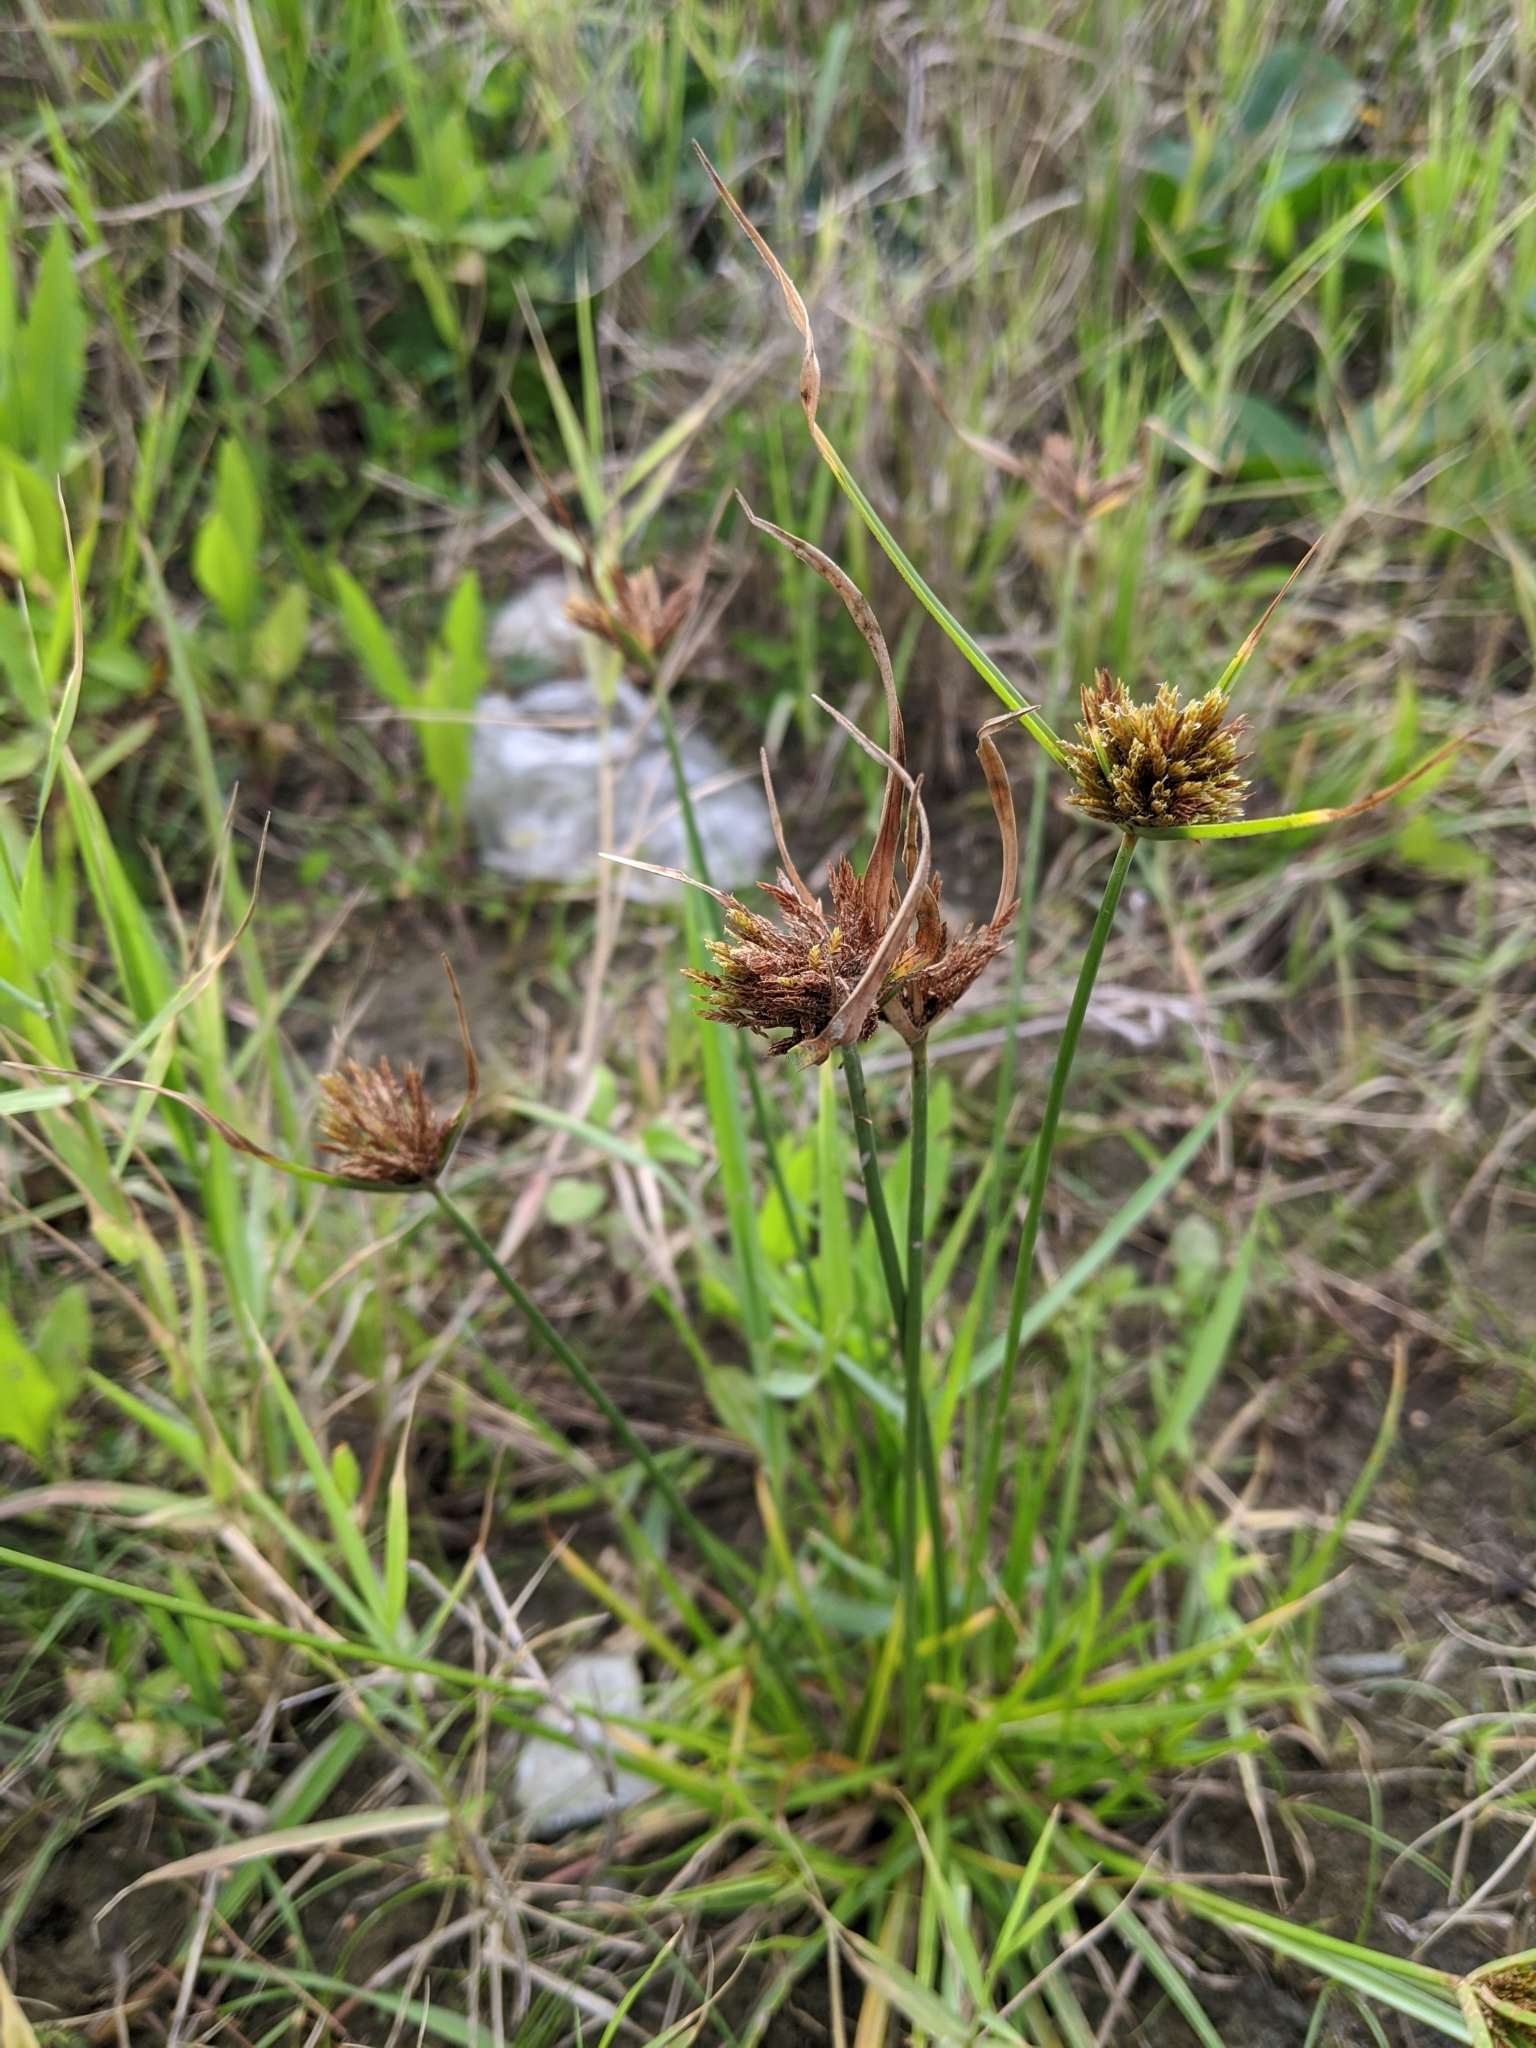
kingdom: Plantae
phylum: Tracheophyta
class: Liliopsida
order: Poales
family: Cyperaceae
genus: Cyperus
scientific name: Cyperus polystachyos
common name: Bunchy flat sedge
